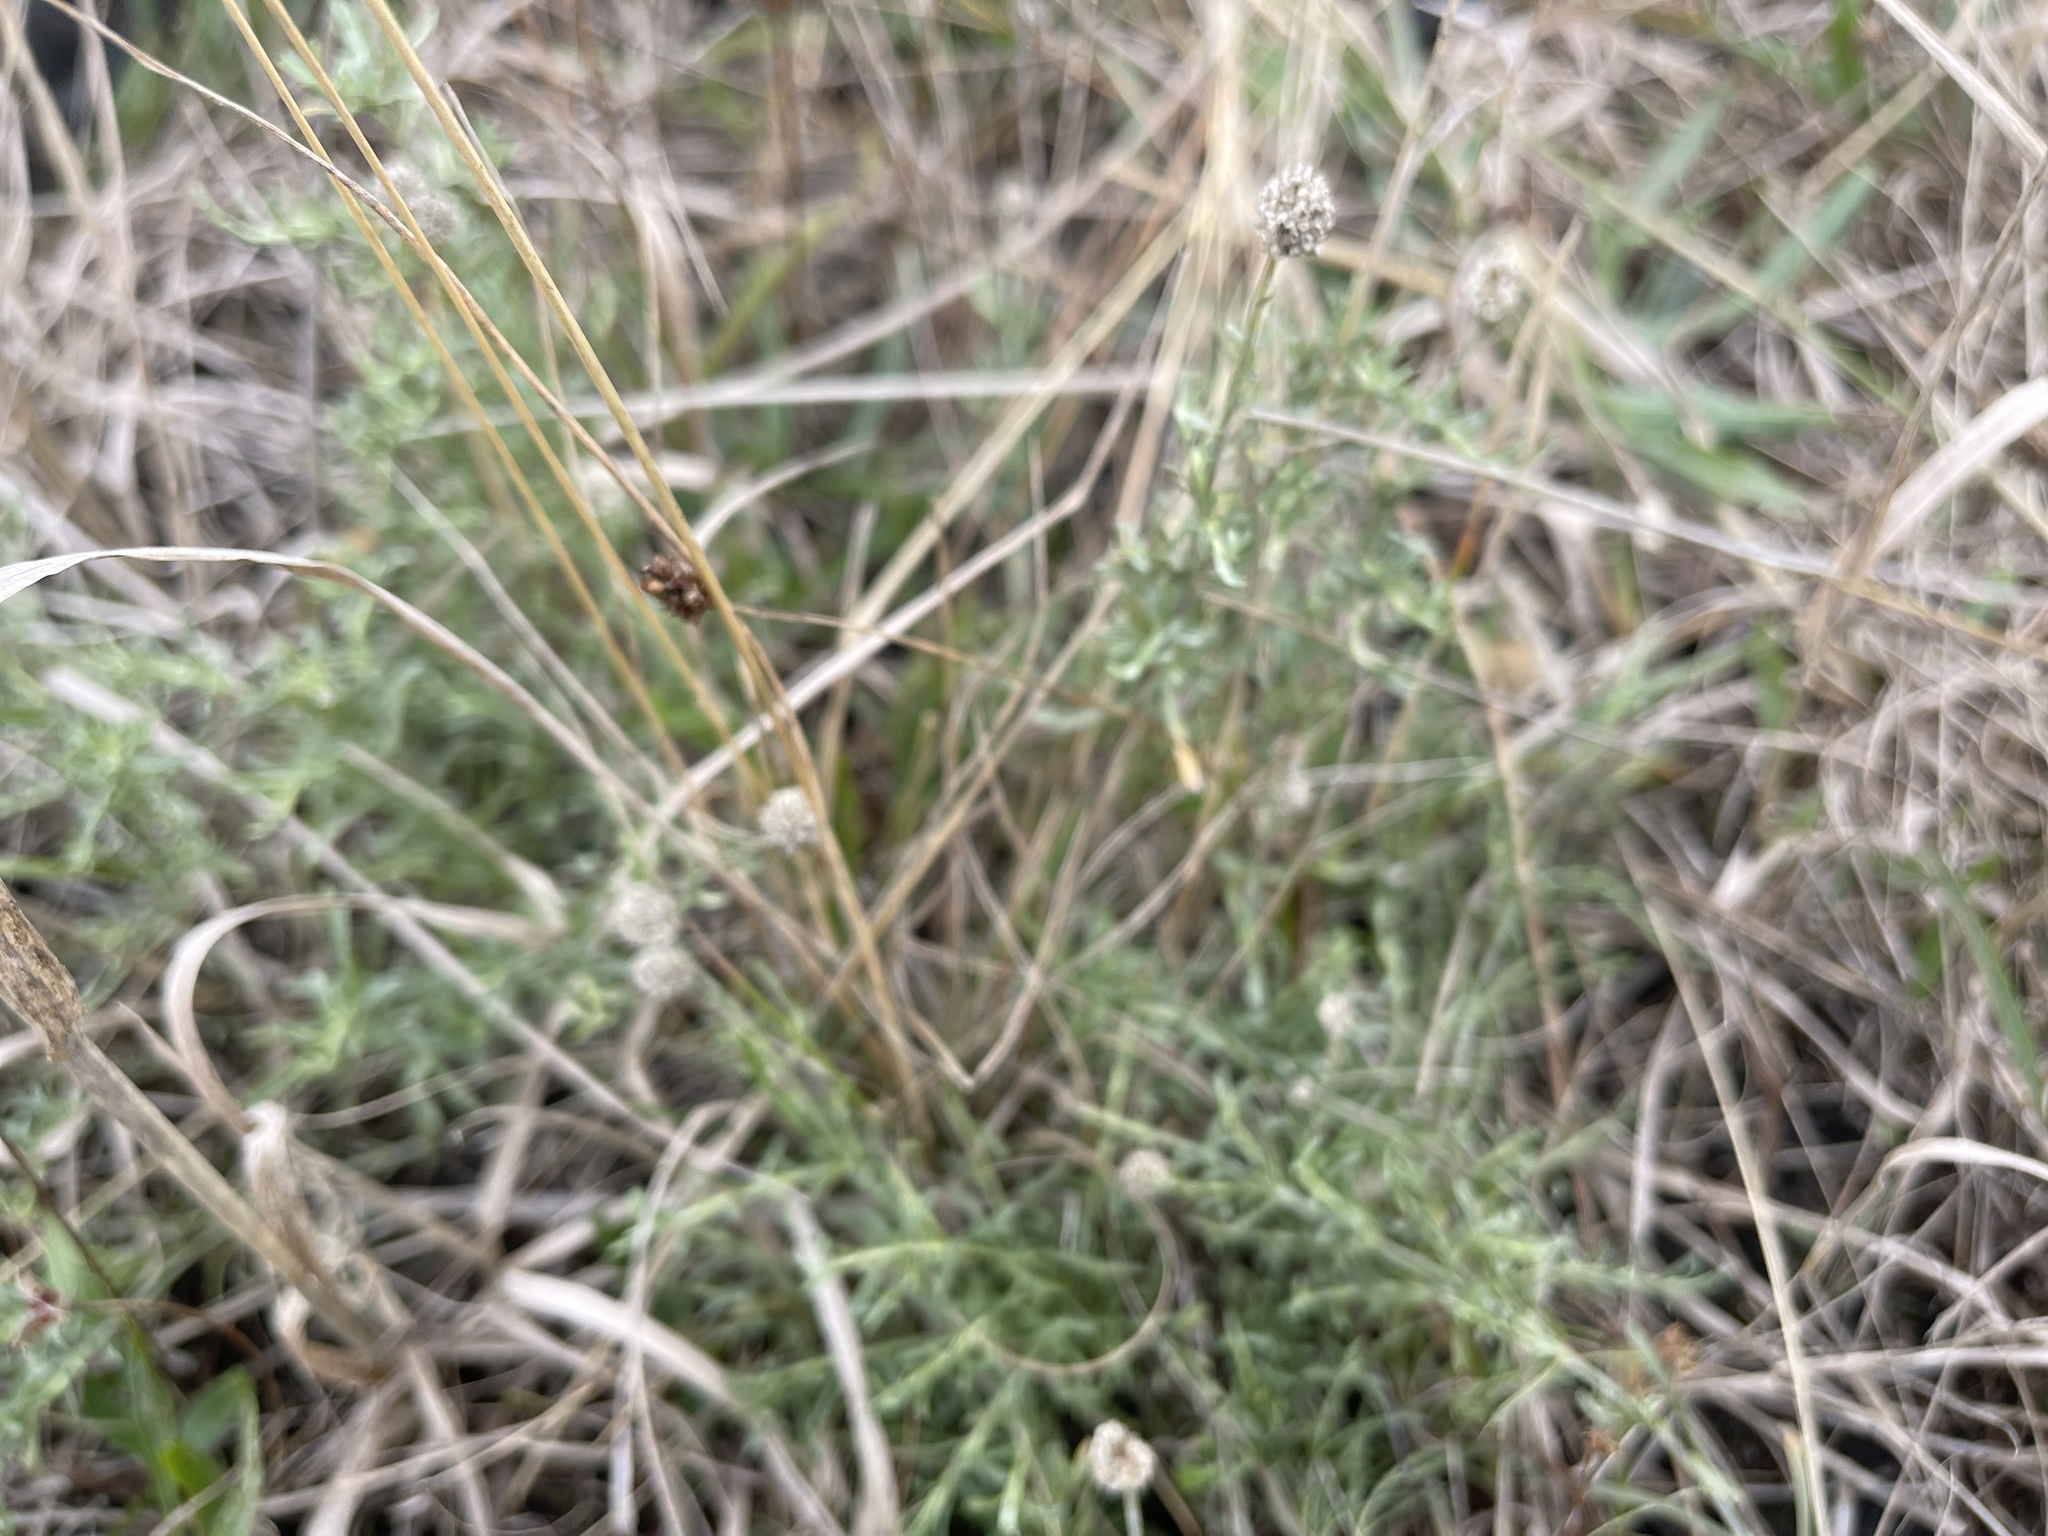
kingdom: Plantae
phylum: Tracheophyta
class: Magnoliopsida
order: Asterales
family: Asteraceae
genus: Calocephalus
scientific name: Calocephalus lacteus
